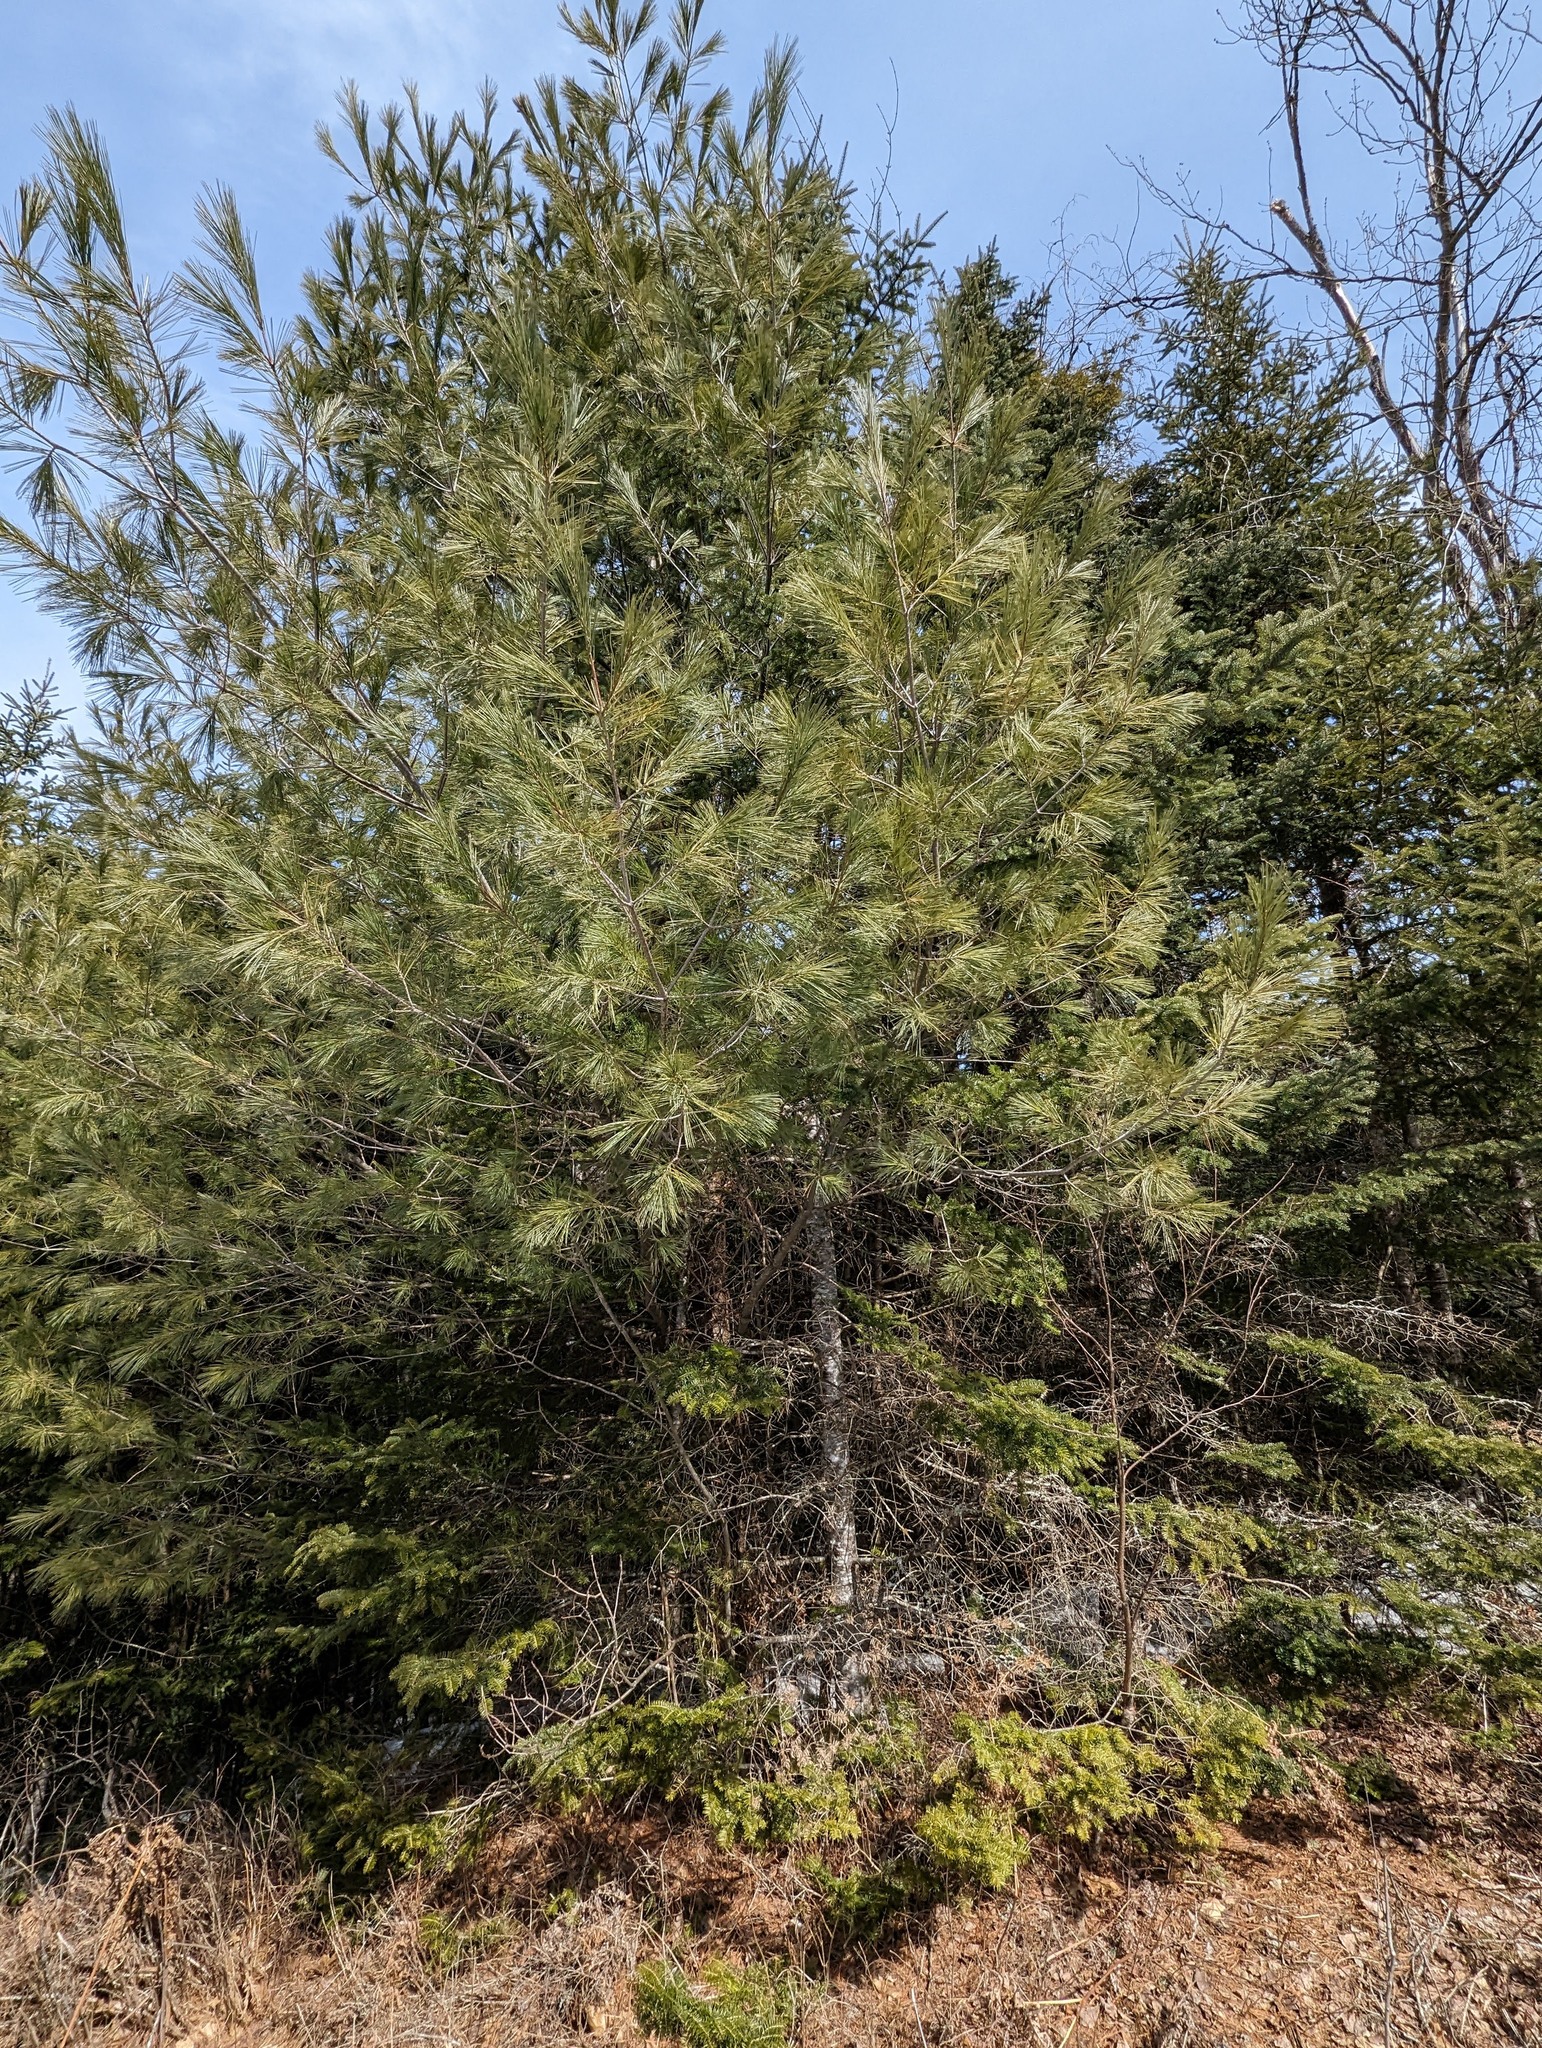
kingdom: Plantae
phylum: Tracheophyta
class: Pinopsida
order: Pinales
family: Pinaceae
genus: Pinus
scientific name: Pinus strobus
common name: Weymouth pine
